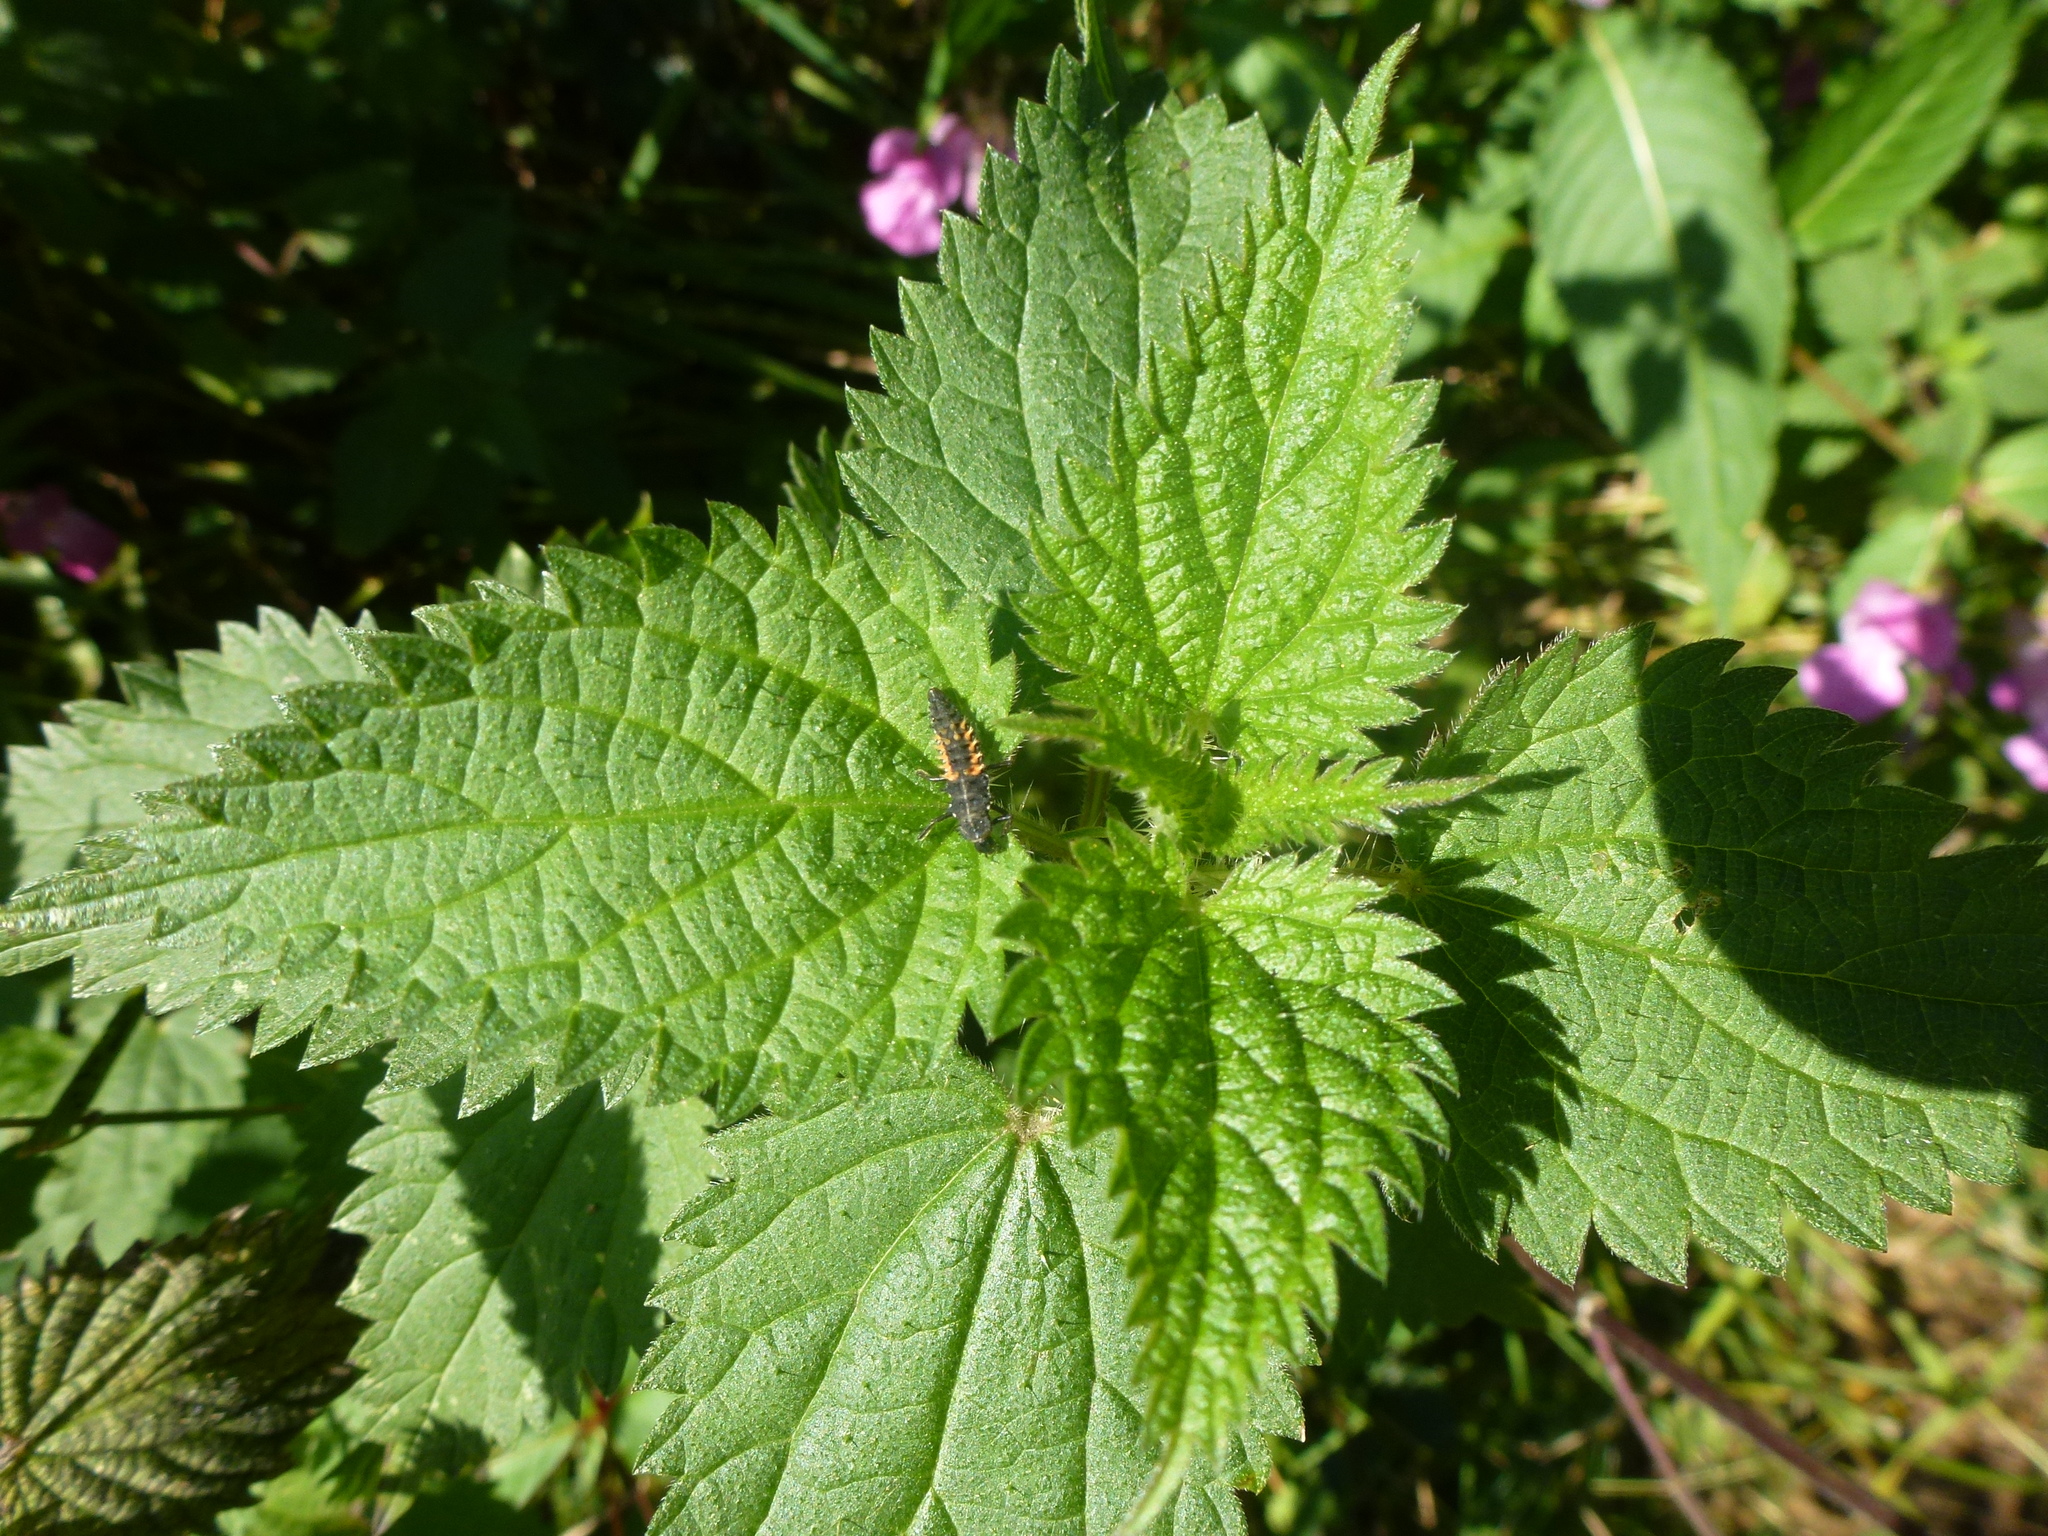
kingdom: Plantae
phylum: Tracheophyta
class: Magnoliopsida
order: Rosales
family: Urticaceae
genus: Urtica
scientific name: Urtica dioica
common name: Common nettle
